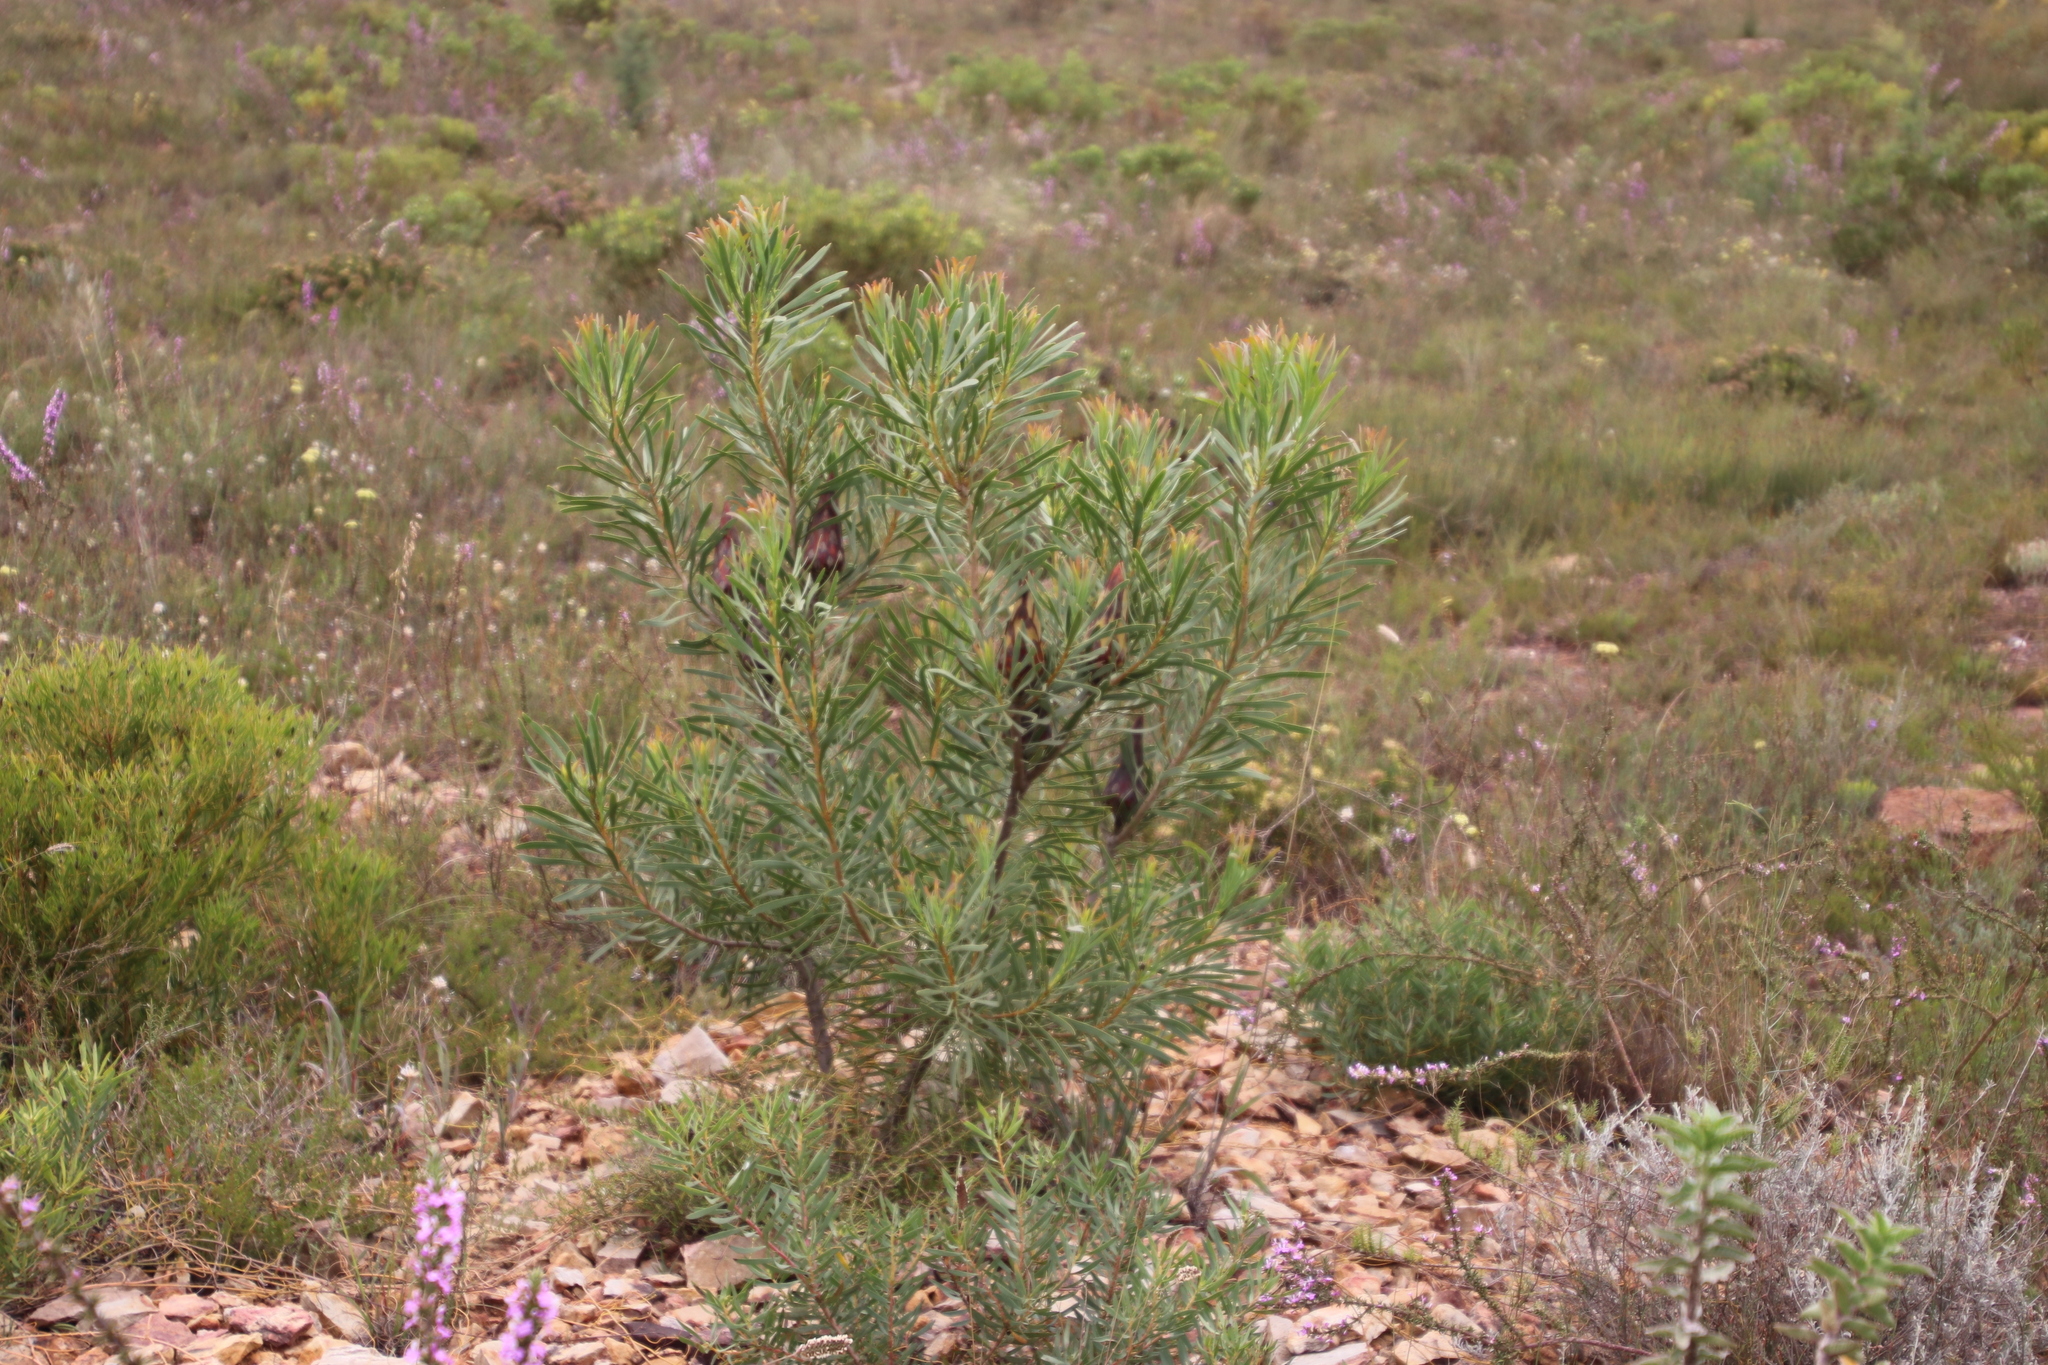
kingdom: Plantae
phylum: Tracheophyta
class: Magnoliopsida
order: Proteales
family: Proteaceae
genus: Protea
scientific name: Protea repens
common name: Sugarbush
